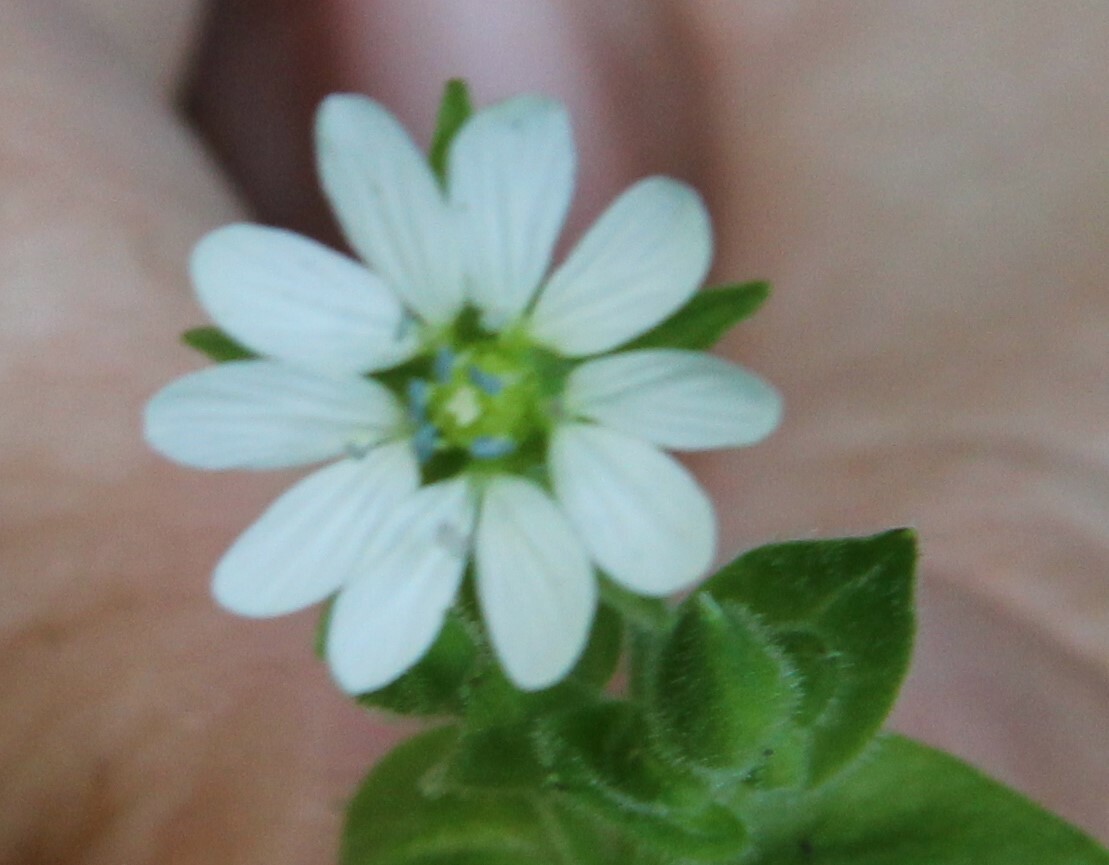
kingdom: Plantae
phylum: Tracheophyta
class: Magnoliopsida
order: Caryophyllales
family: Caryophyllaceae
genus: Stellaria
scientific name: Stellaria aquatica
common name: Water chickweed
